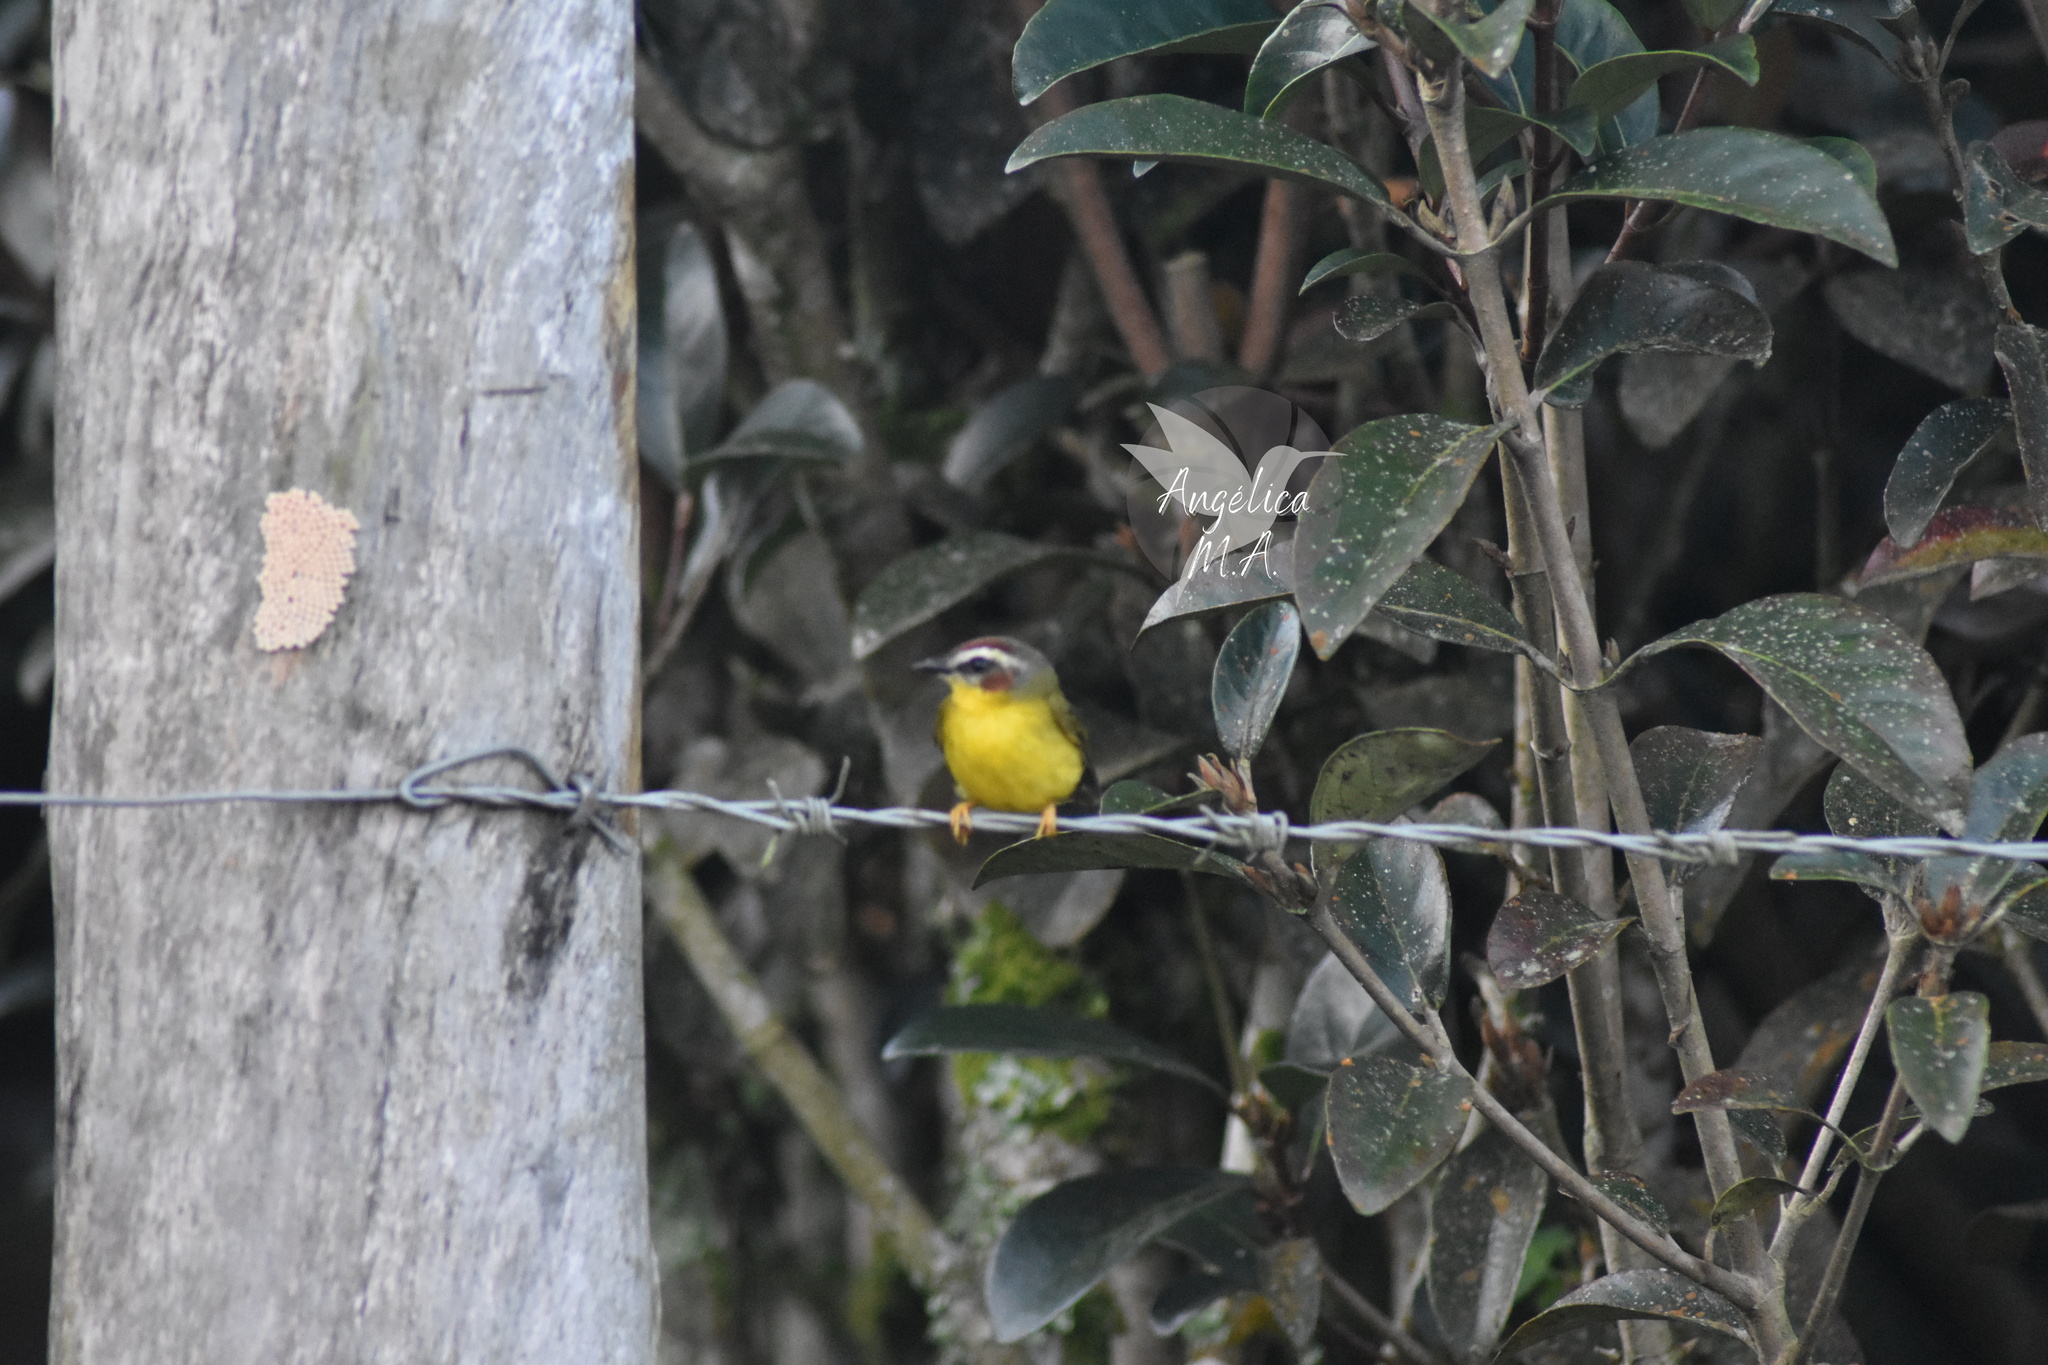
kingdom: Animalia
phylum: Chordata
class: Aves
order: Passeriformes
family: Parulidae
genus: Basileuterus
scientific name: Basileuterus rufifrons
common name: Rufous-capped warbler
